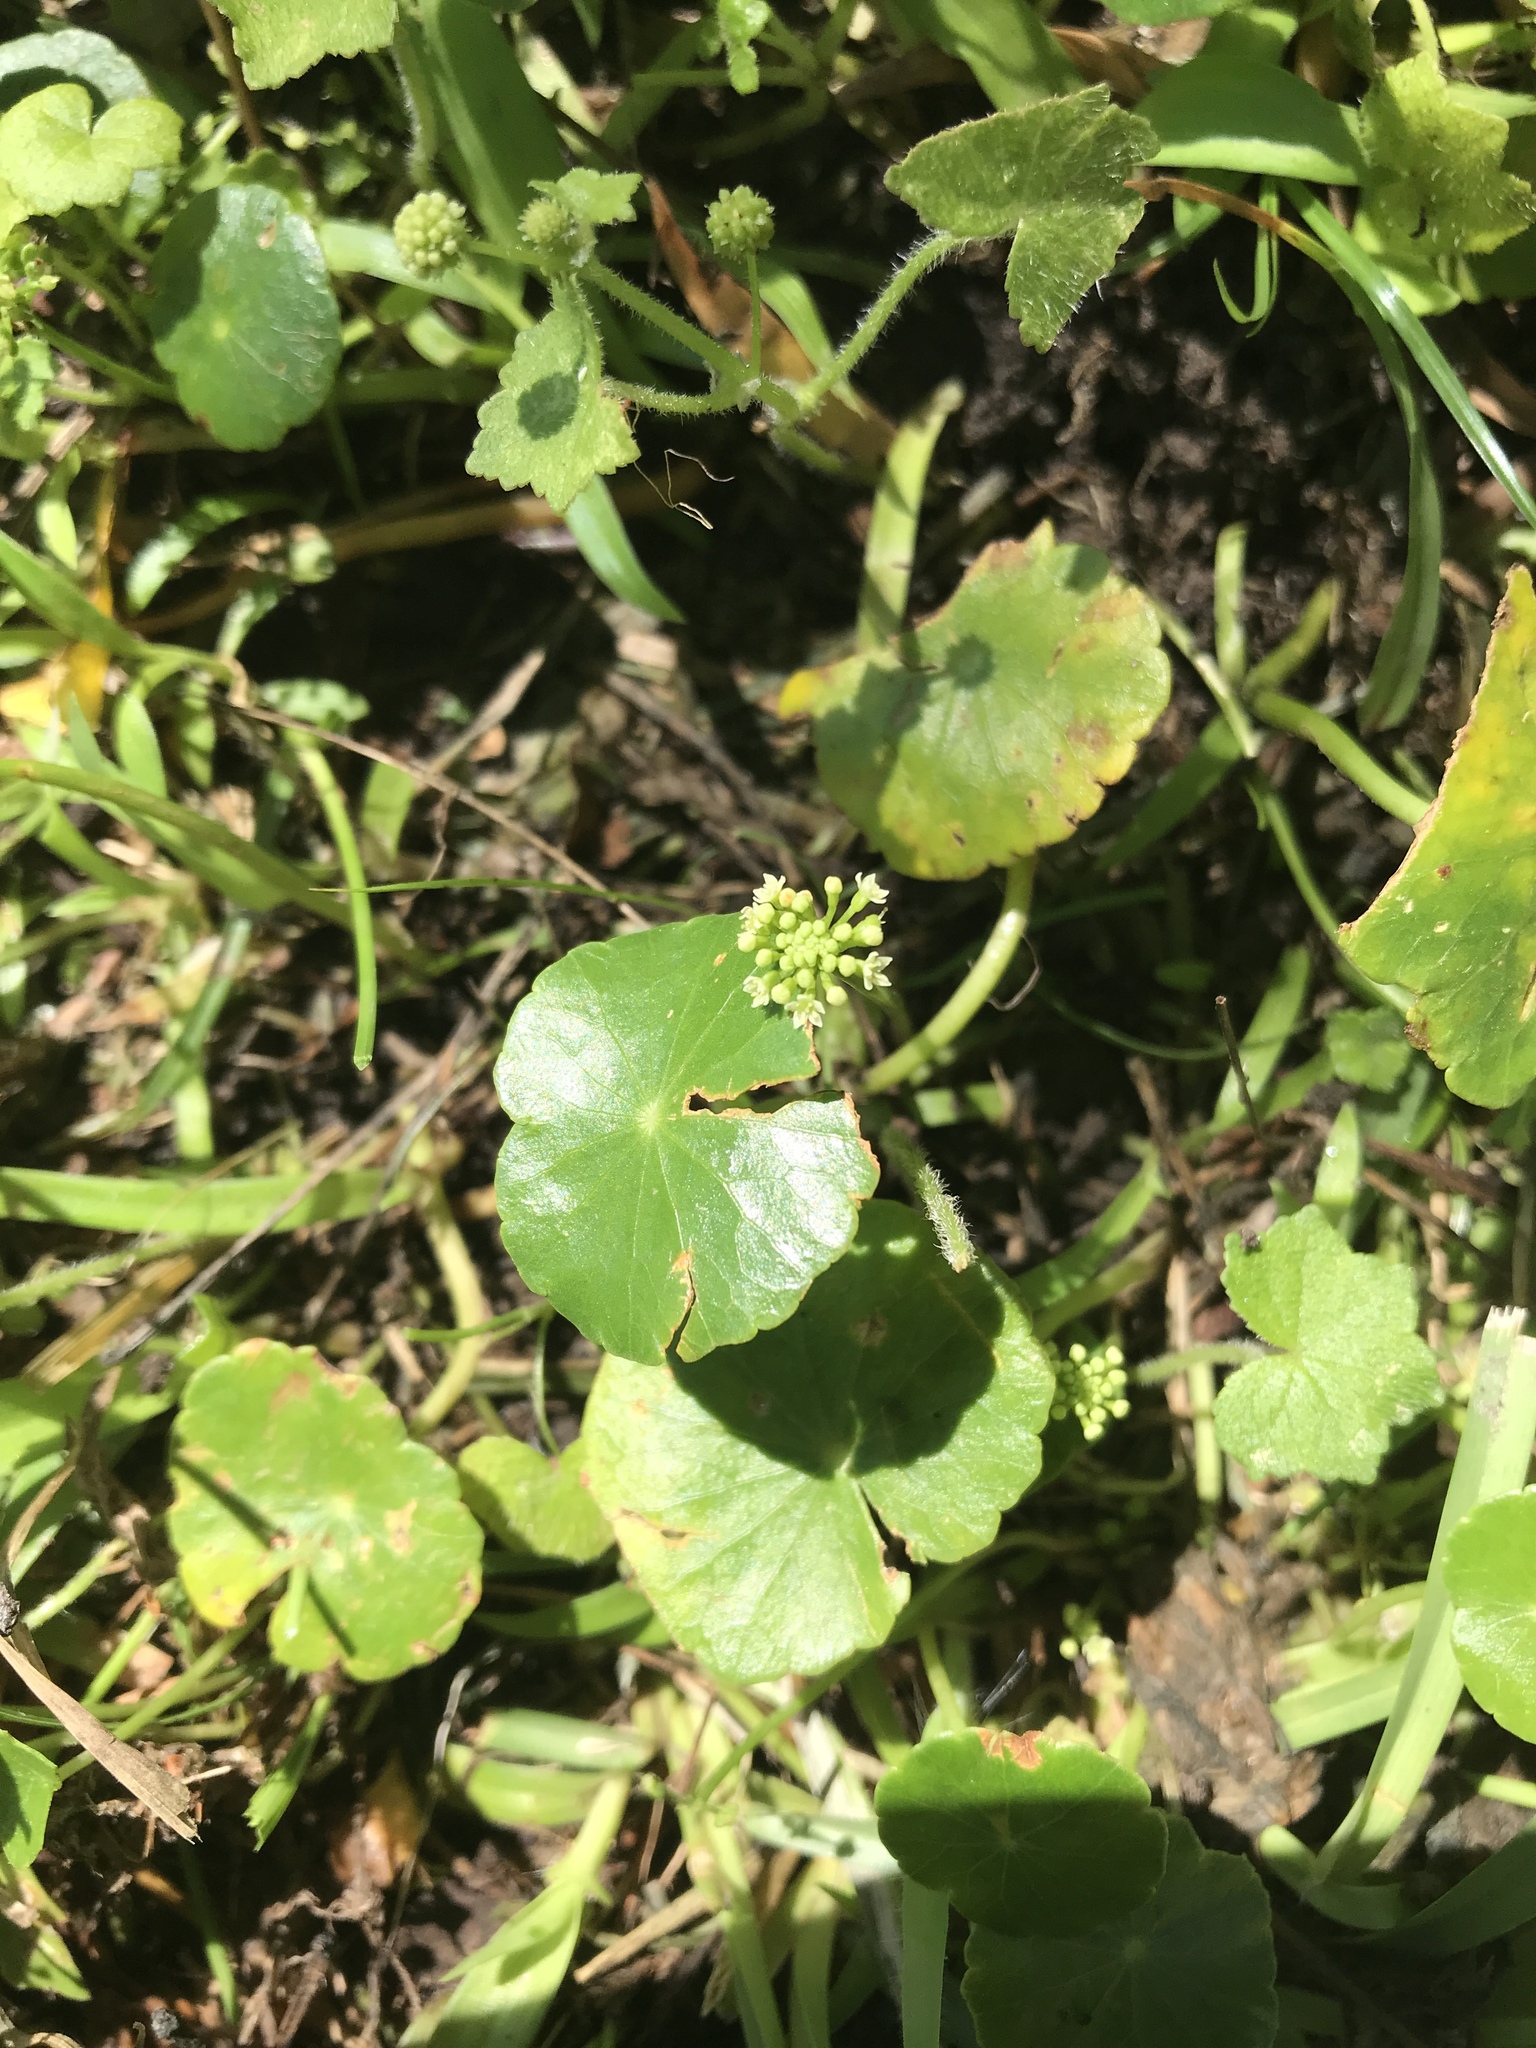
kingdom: Plantae
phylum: Tracheophyta
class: Magnoliopsida
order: Apiales
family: Araliaceae
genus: Hydrocotyle
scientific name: Hydrocotyle umbellata
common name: Water pennywort
